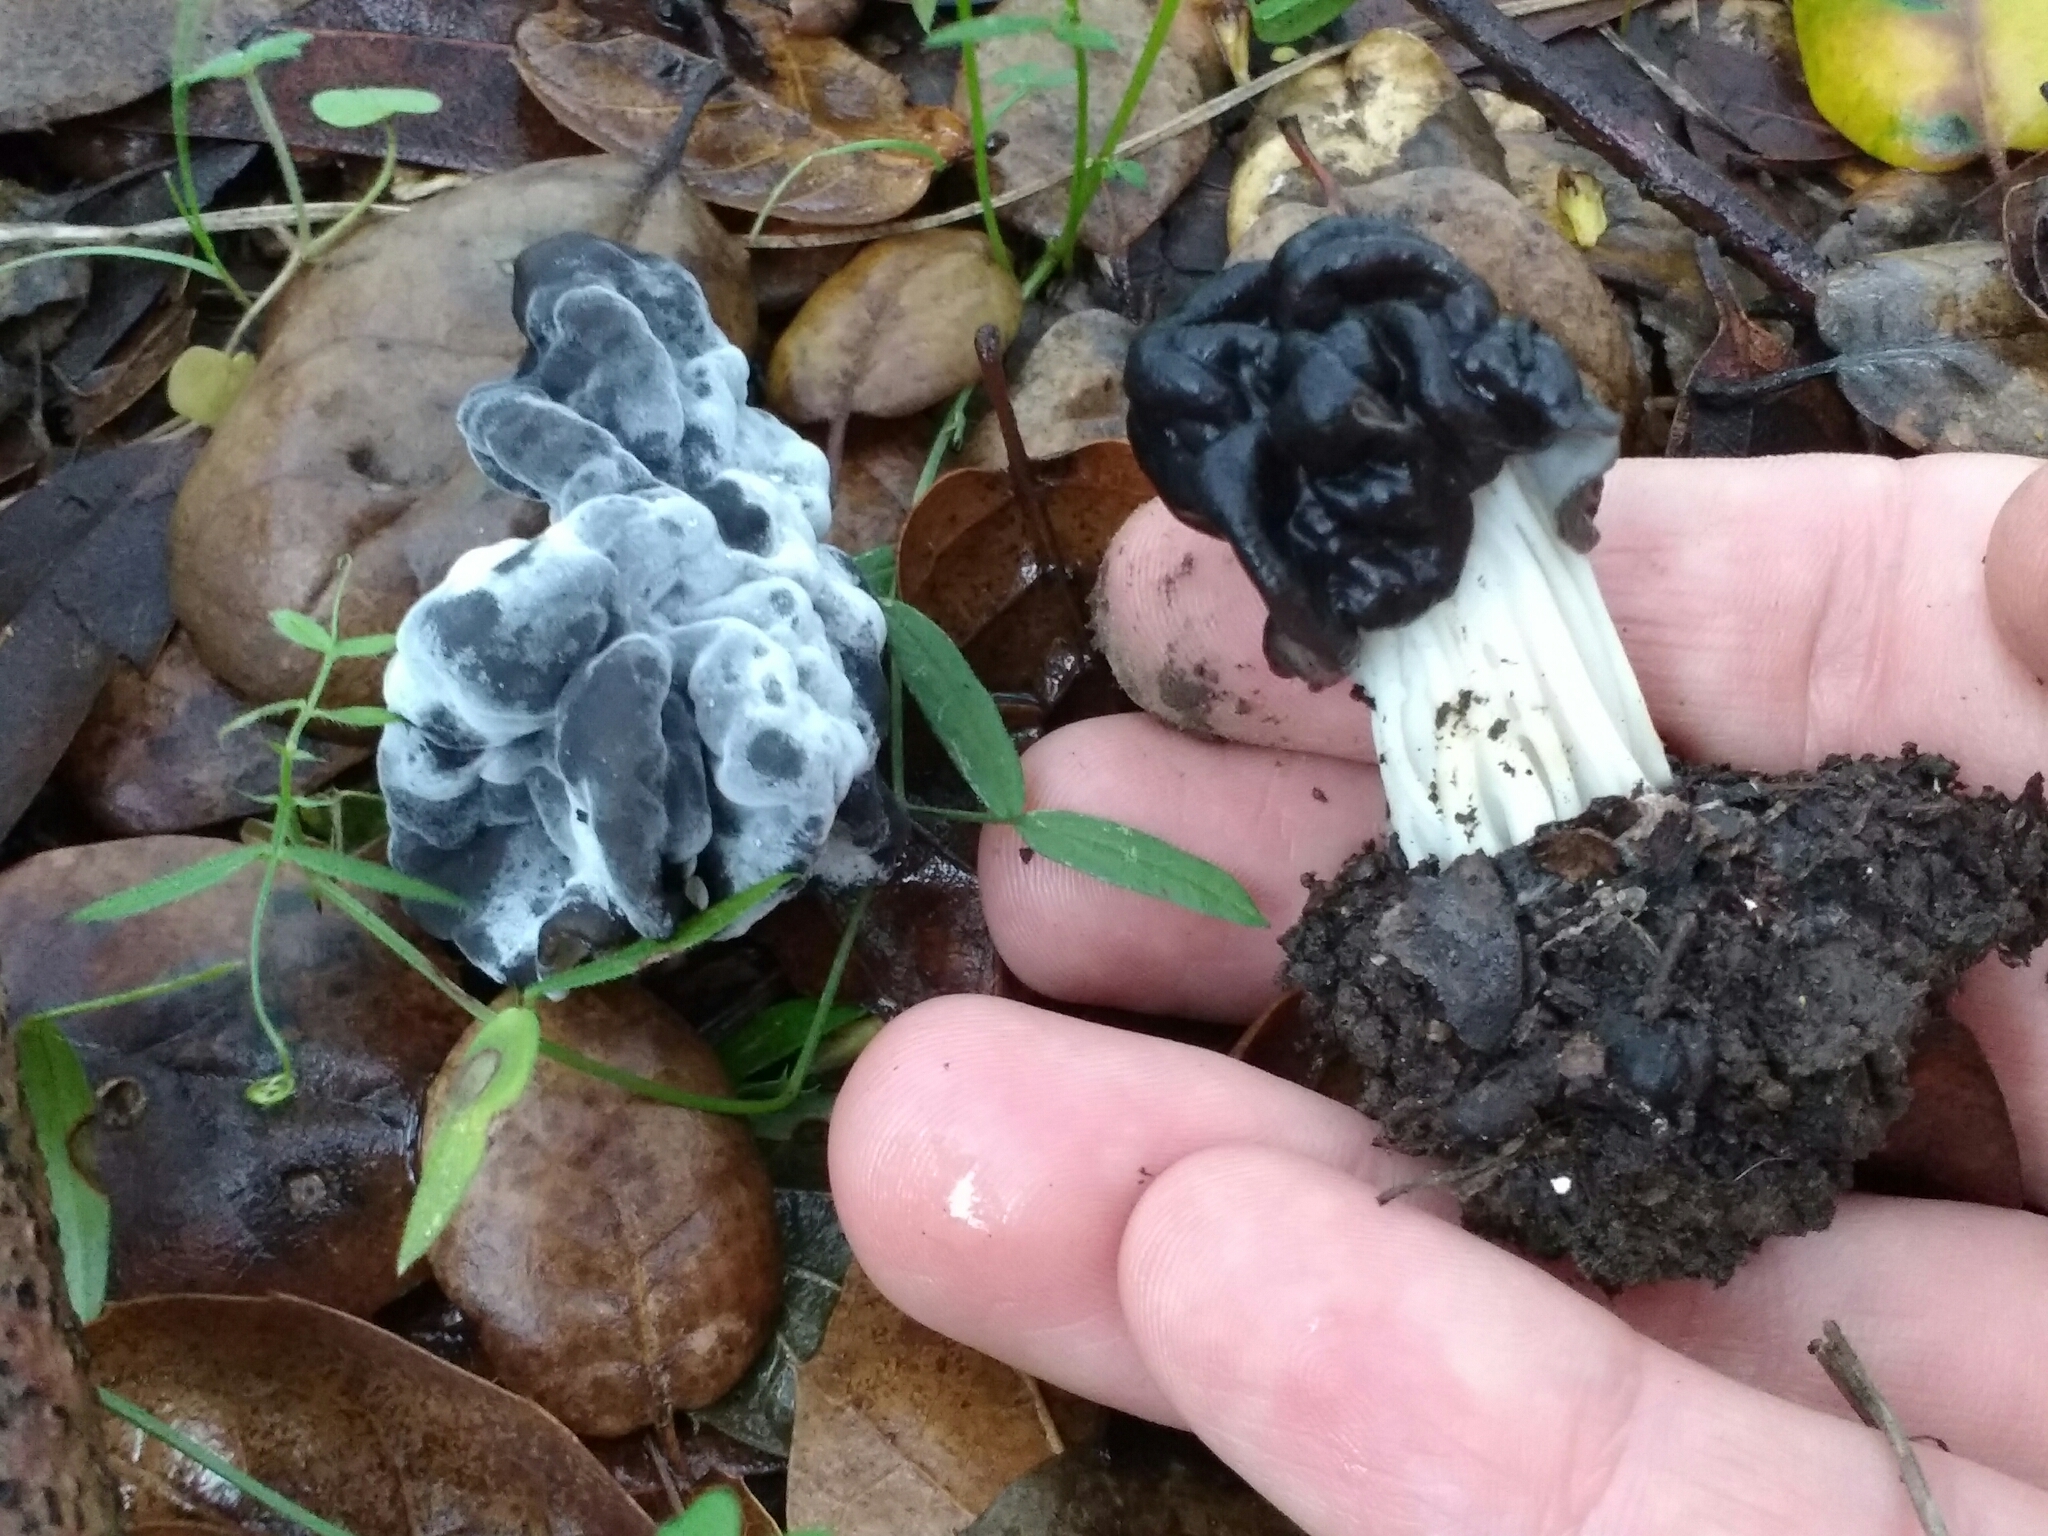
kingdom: Fungi
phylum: Ascomycota
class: Pezizomycetes
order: Pezizales
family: Helvellaceae
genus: Helvella
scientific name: Helvella dryophila
